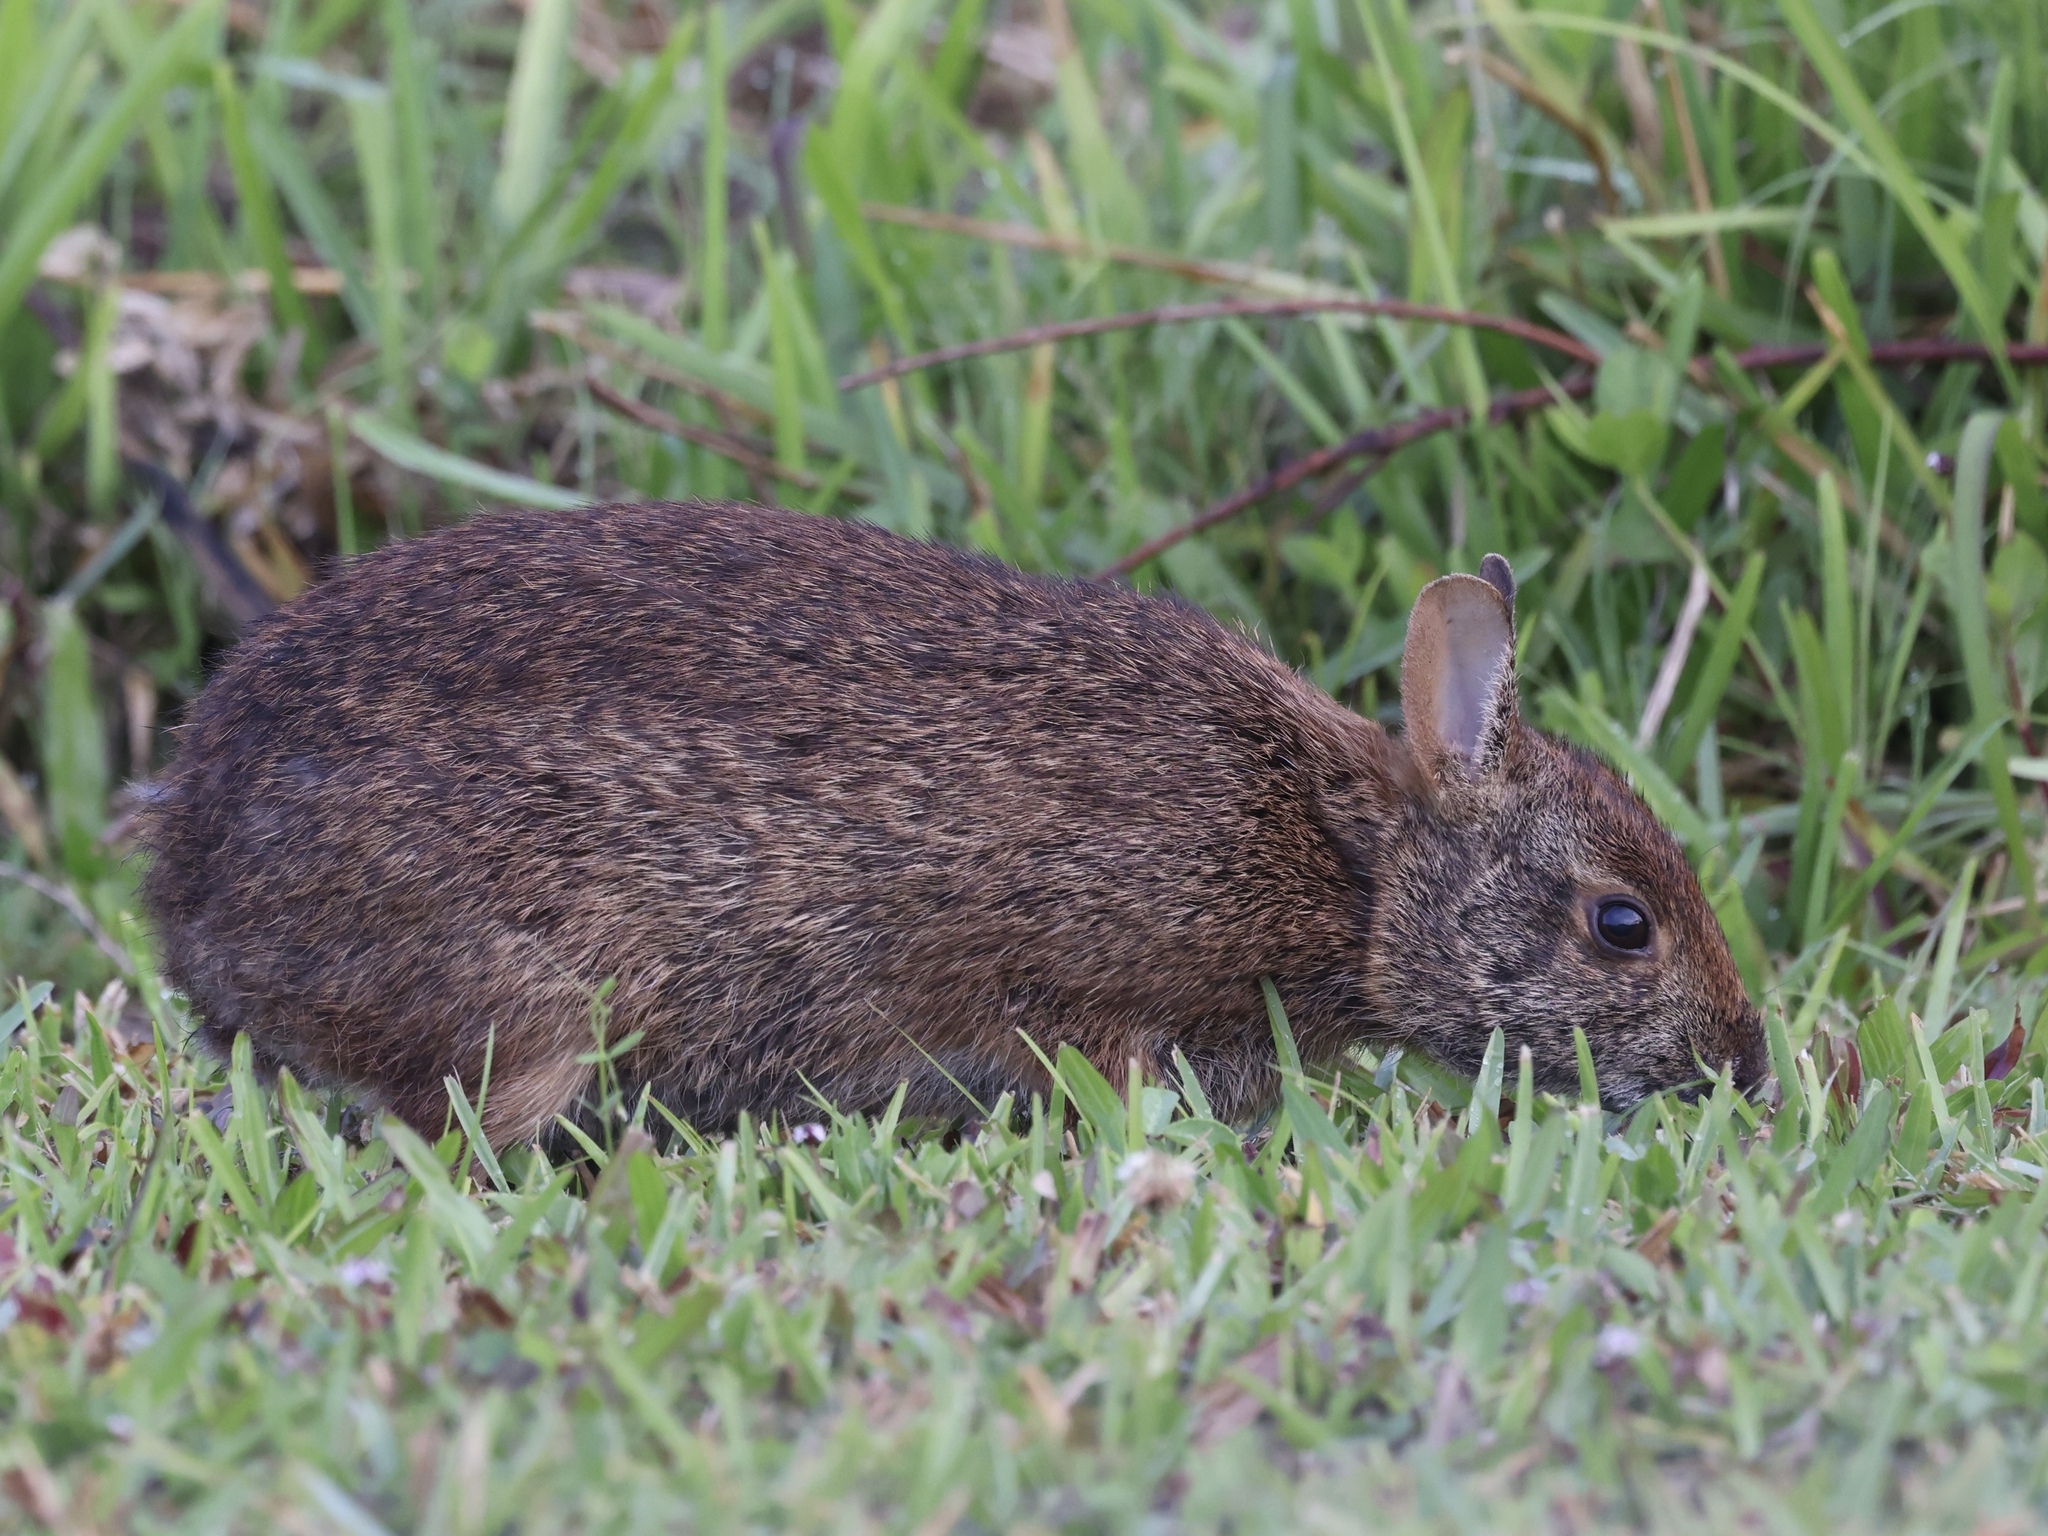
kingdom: Animalia
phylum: Chordata
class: Mammalia
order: Lagomorpha
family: Leporidae
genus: Sylvilagus
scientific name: Sylvilagus palustris
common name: Marsh rabbit
